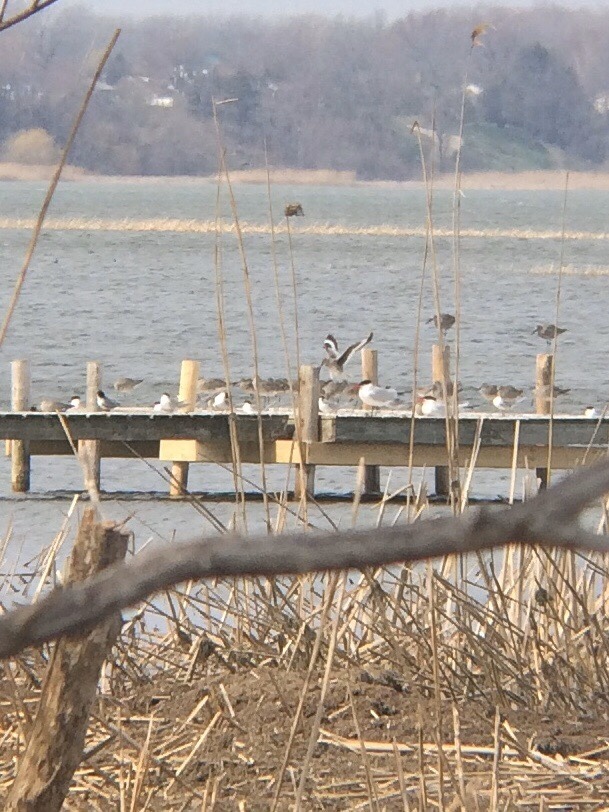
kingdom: Animalia
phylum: Chordata
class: Aves
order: Charadriiformes
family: Scolopacidae
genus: Tringa
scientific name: Tringa semipalmata
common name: Willet
